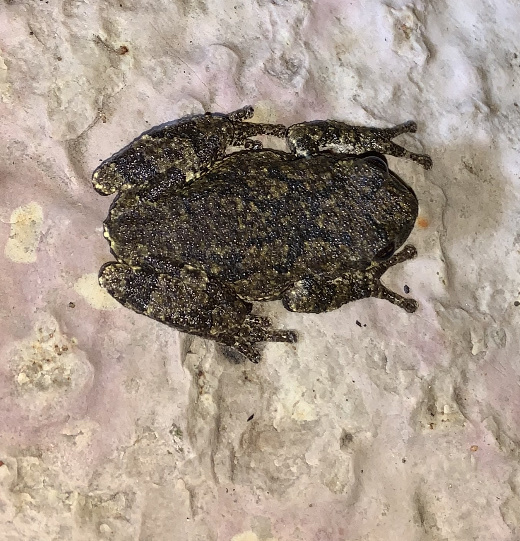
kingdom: Animalia
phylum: Chordata
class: Amphibia
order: Anura
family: Hylidae
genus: Dryophytes
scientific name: Dryophytes versicolor
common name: Gray treefrog
